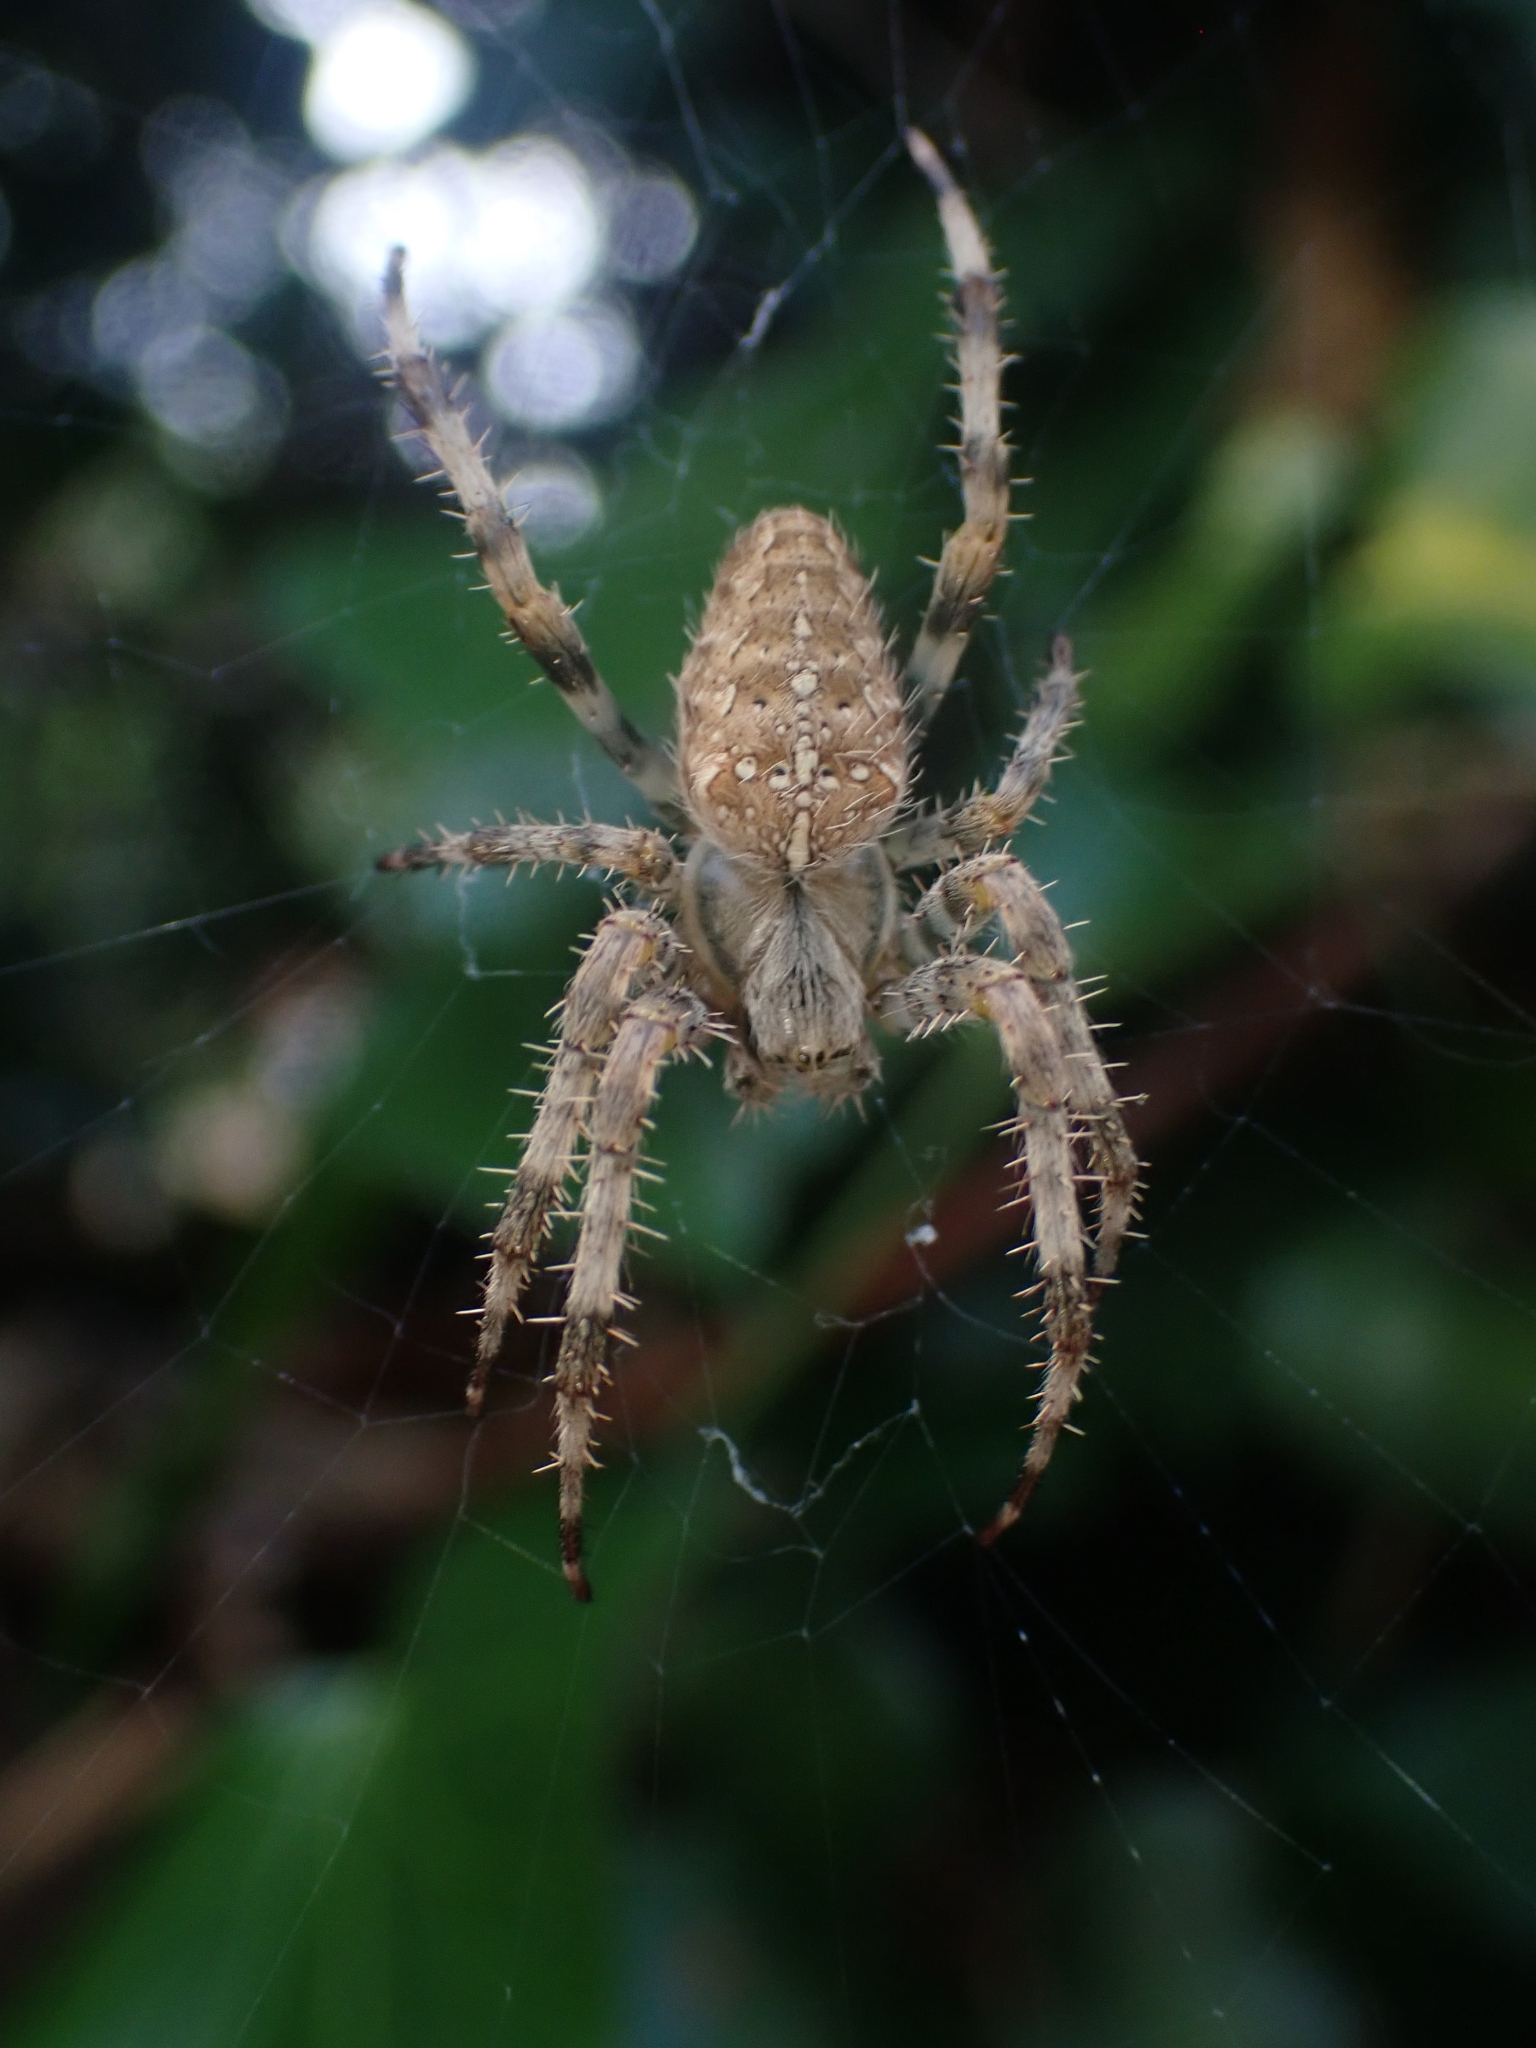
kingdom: Animalia
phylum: Arthropoda
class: Arachnida
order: Araneae
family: Araneidae
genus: Araneus
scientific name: Araneus diadematus
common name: Cross orbweaver
